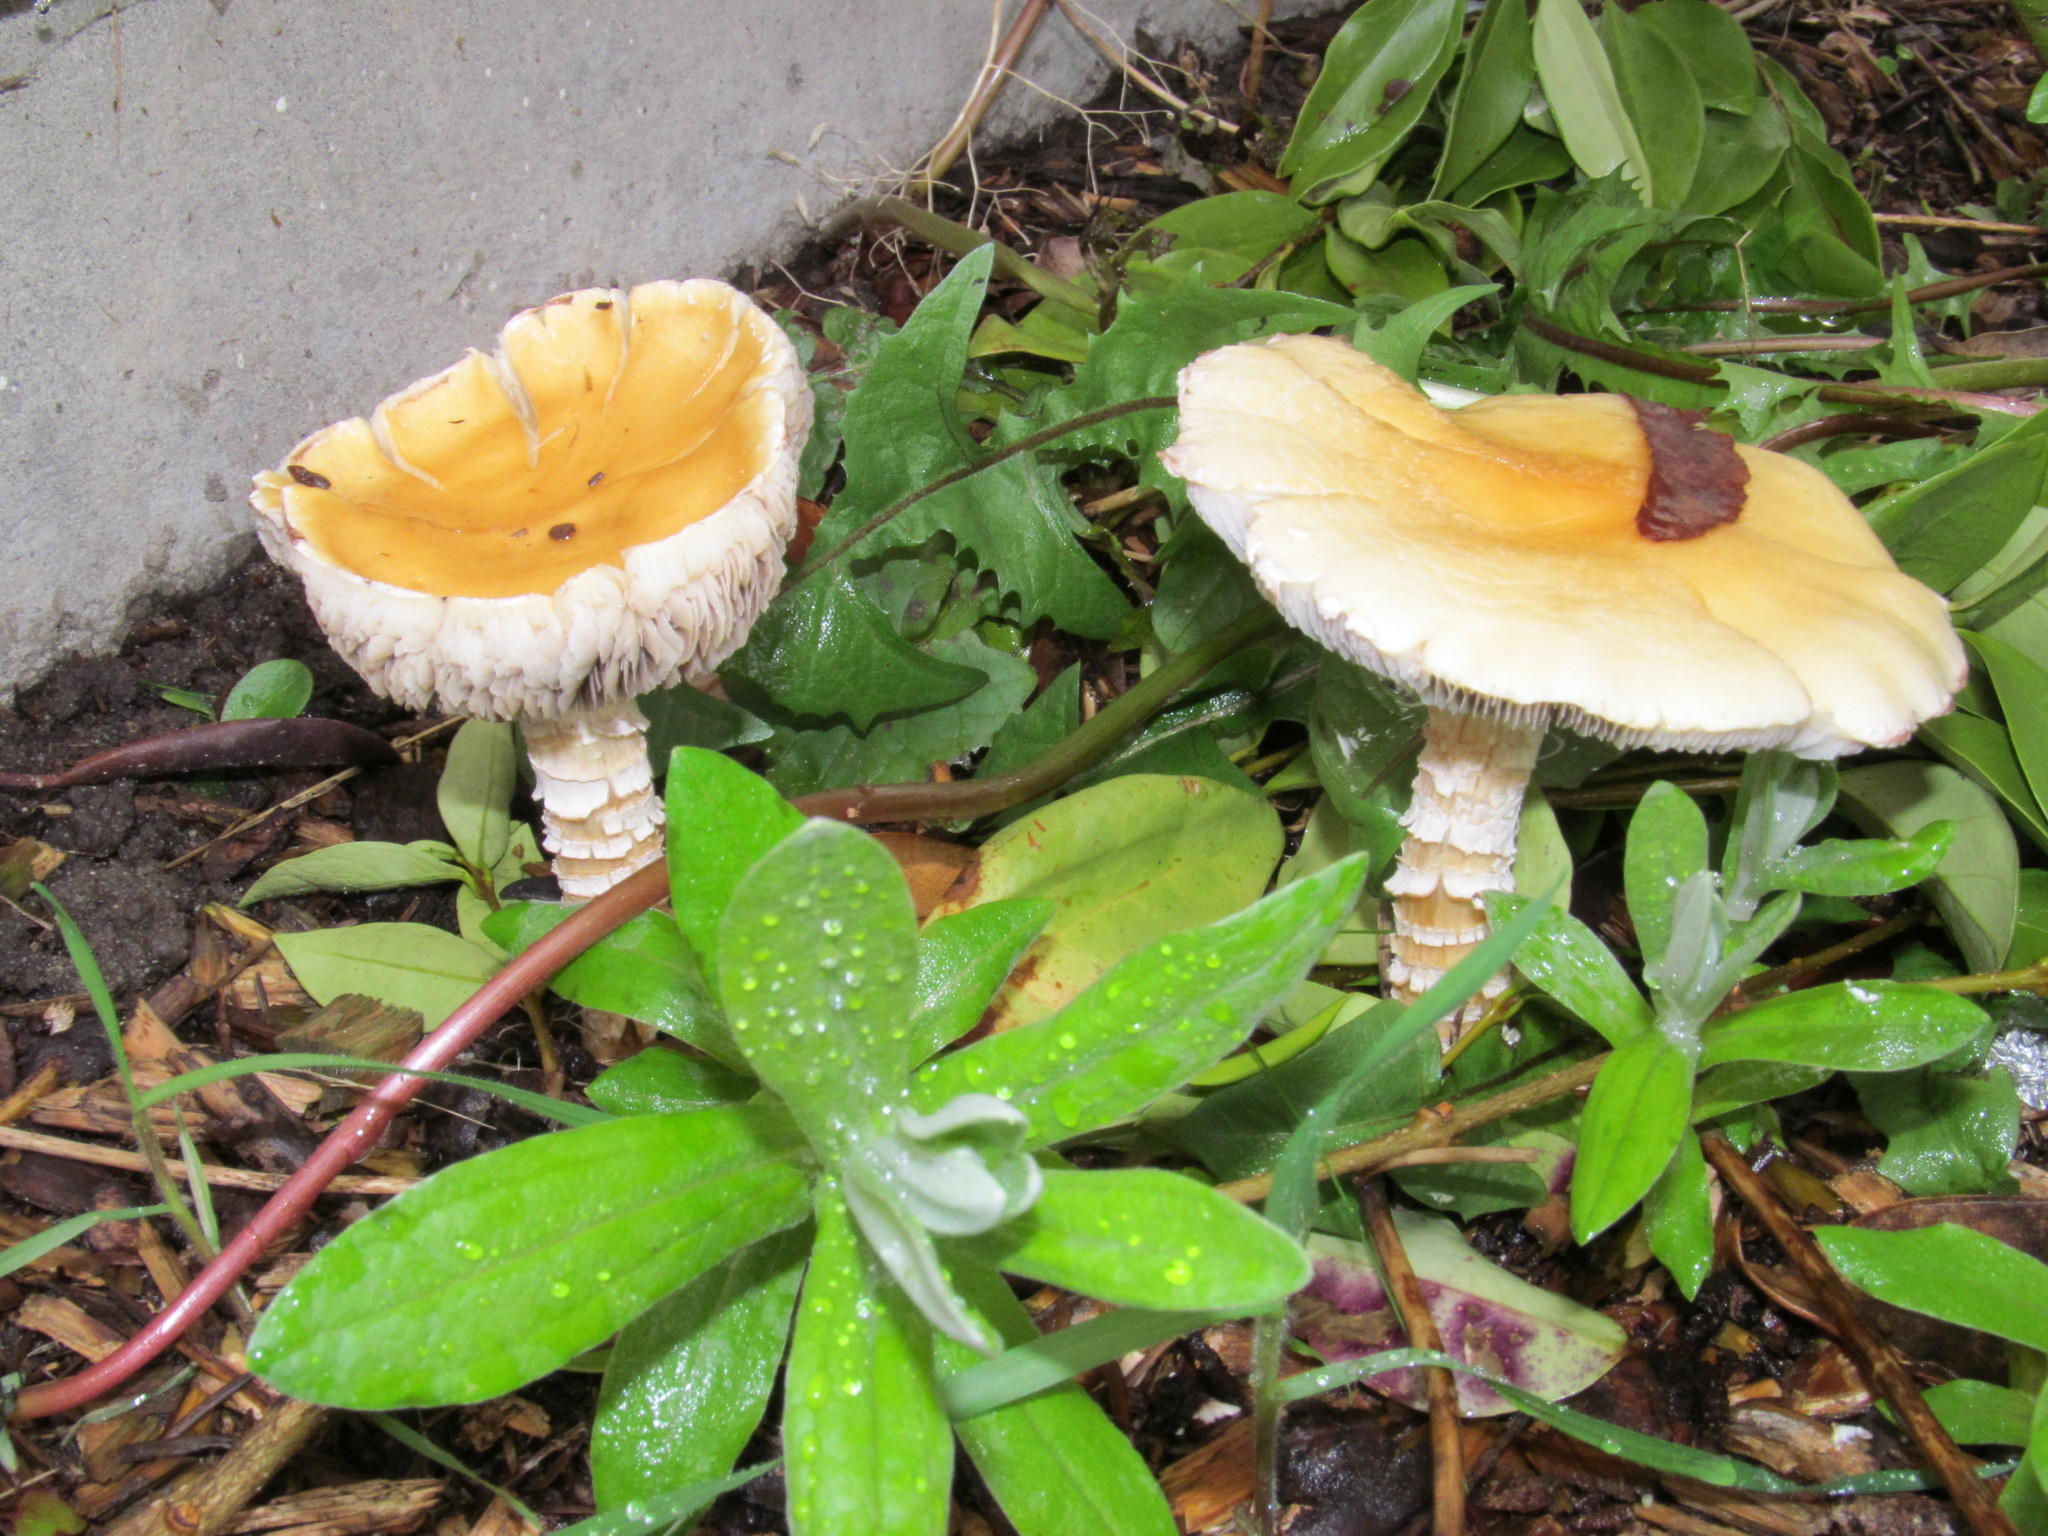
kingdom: Fungi
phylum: Basidiomycota
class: Agaricomycetes
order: Agaricales
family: Strophariaceae
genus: Stropharia
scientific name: Stropharia ambigua
